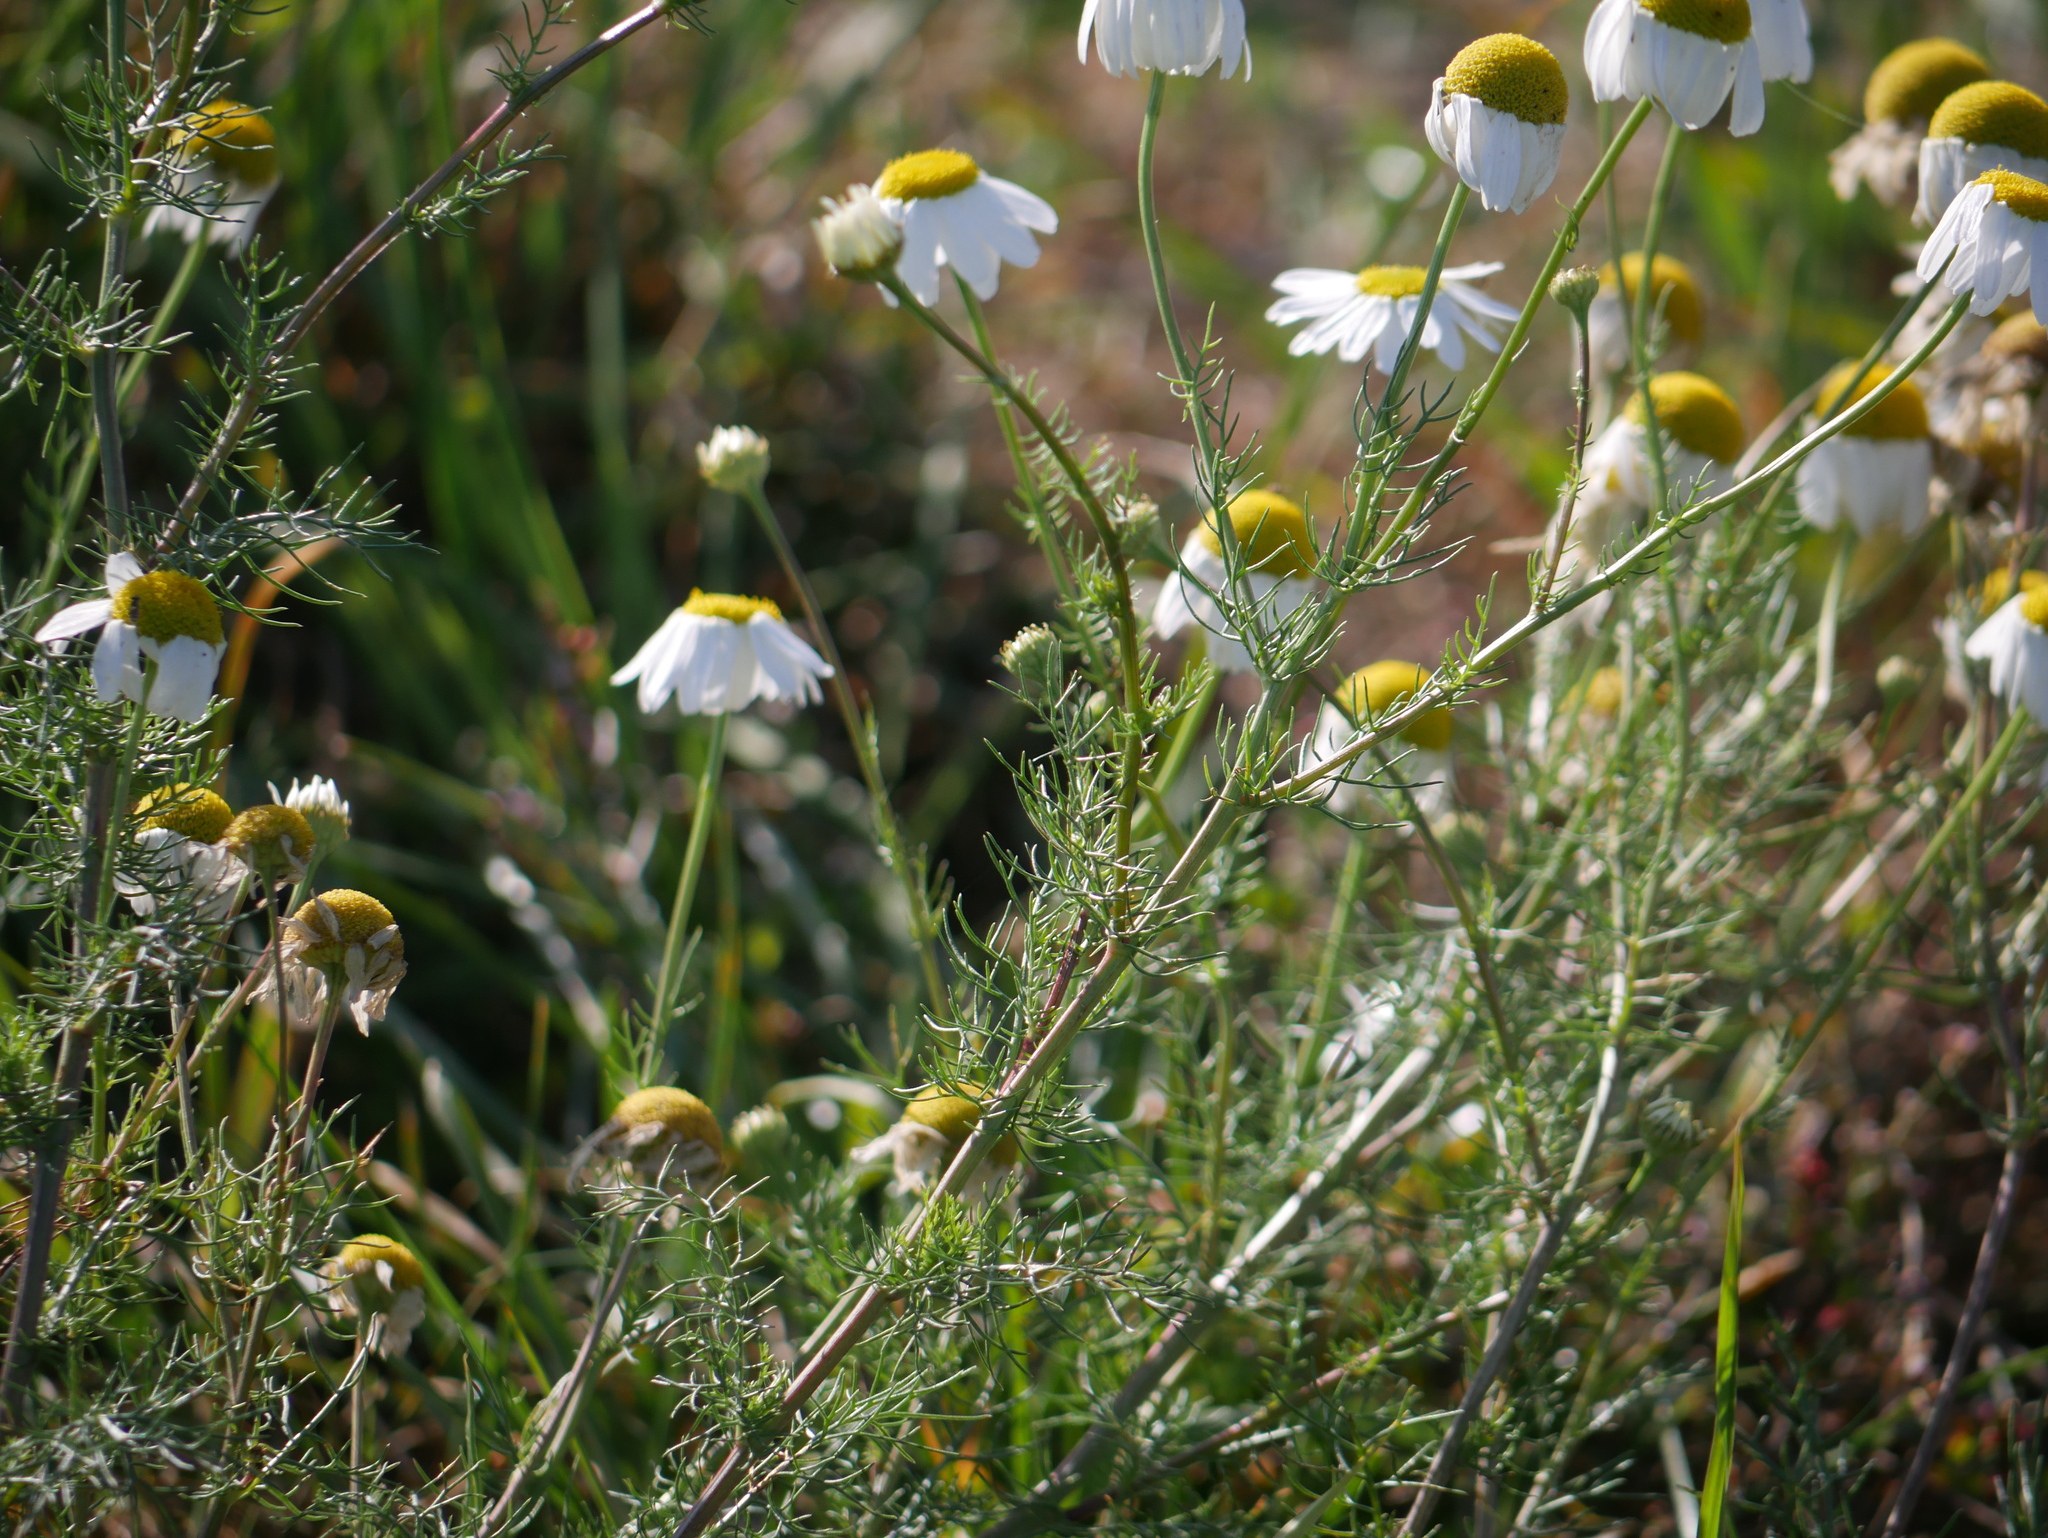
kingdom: Plantae
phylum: Tracheophyta
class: Magnoliopsida
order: Asterales
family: Asteraceae
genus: Matricaria
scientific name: Matricaria chamomilla
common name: Scented mayweed
